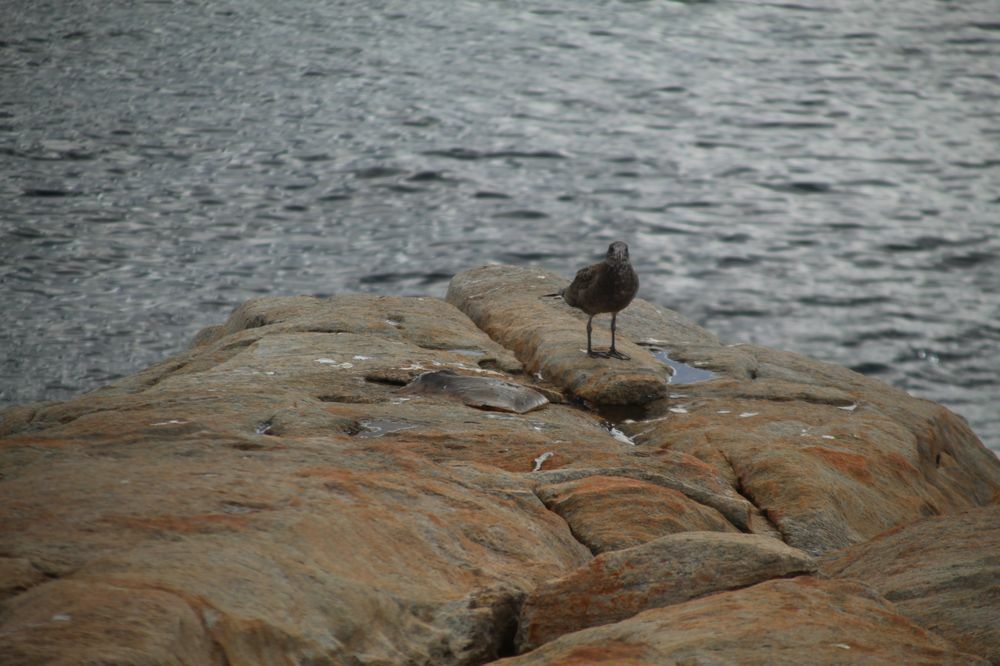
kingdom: Animalia
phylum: Chordata
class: Aves
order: Charadriiformes
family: Laridae
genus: Larus
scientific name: Larus pacificus
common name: Pacific gull
